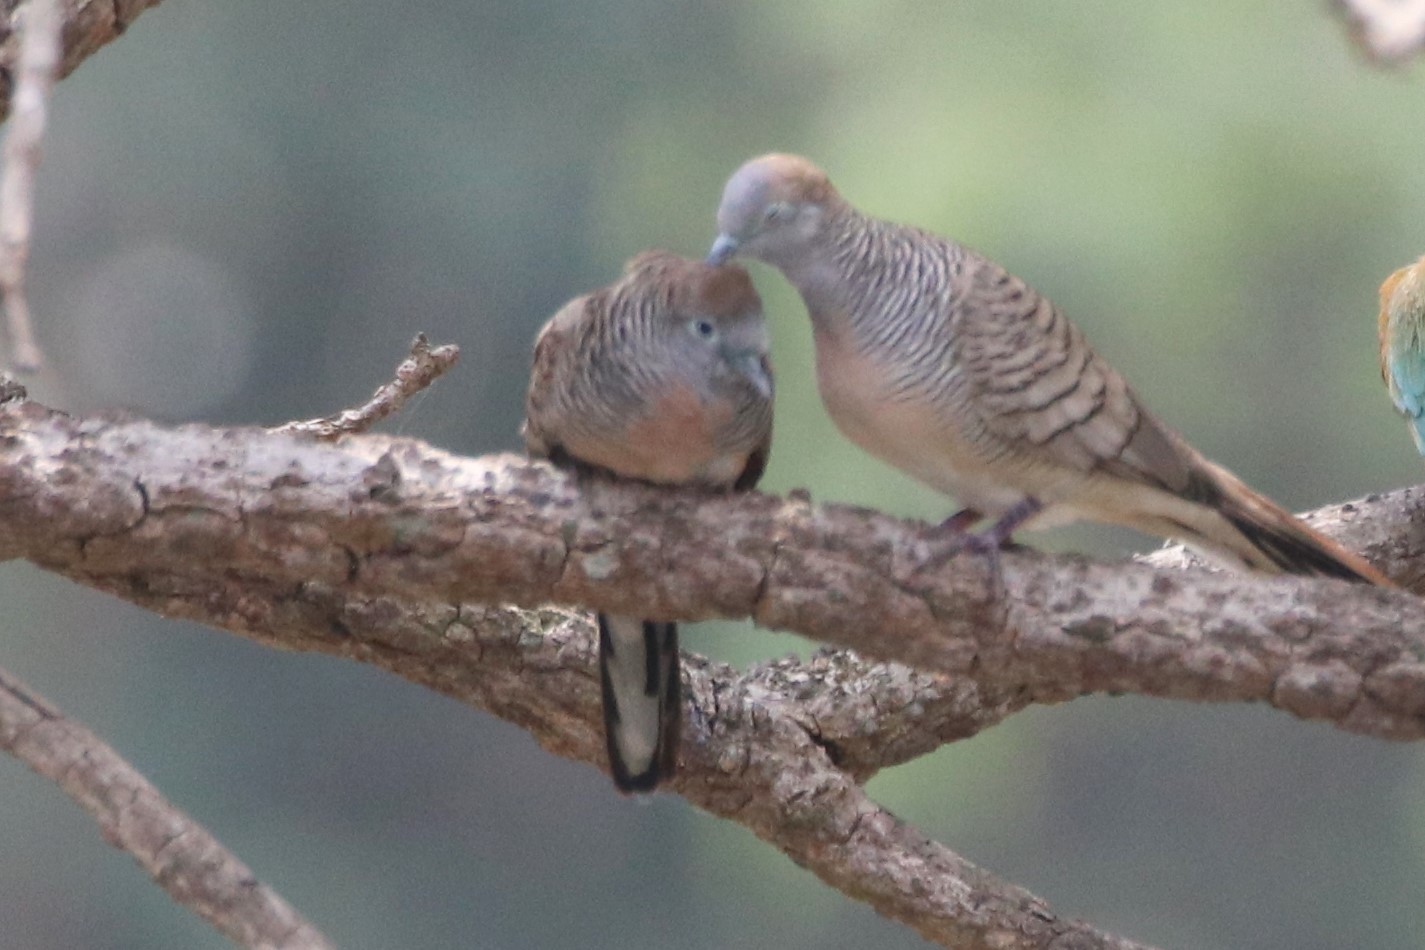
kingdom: Animalia
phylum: Chordata
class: Aves
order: Columbiformes
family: Columbidae
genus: Geopelia
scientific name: Geopelia striata
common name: Zebra dove
